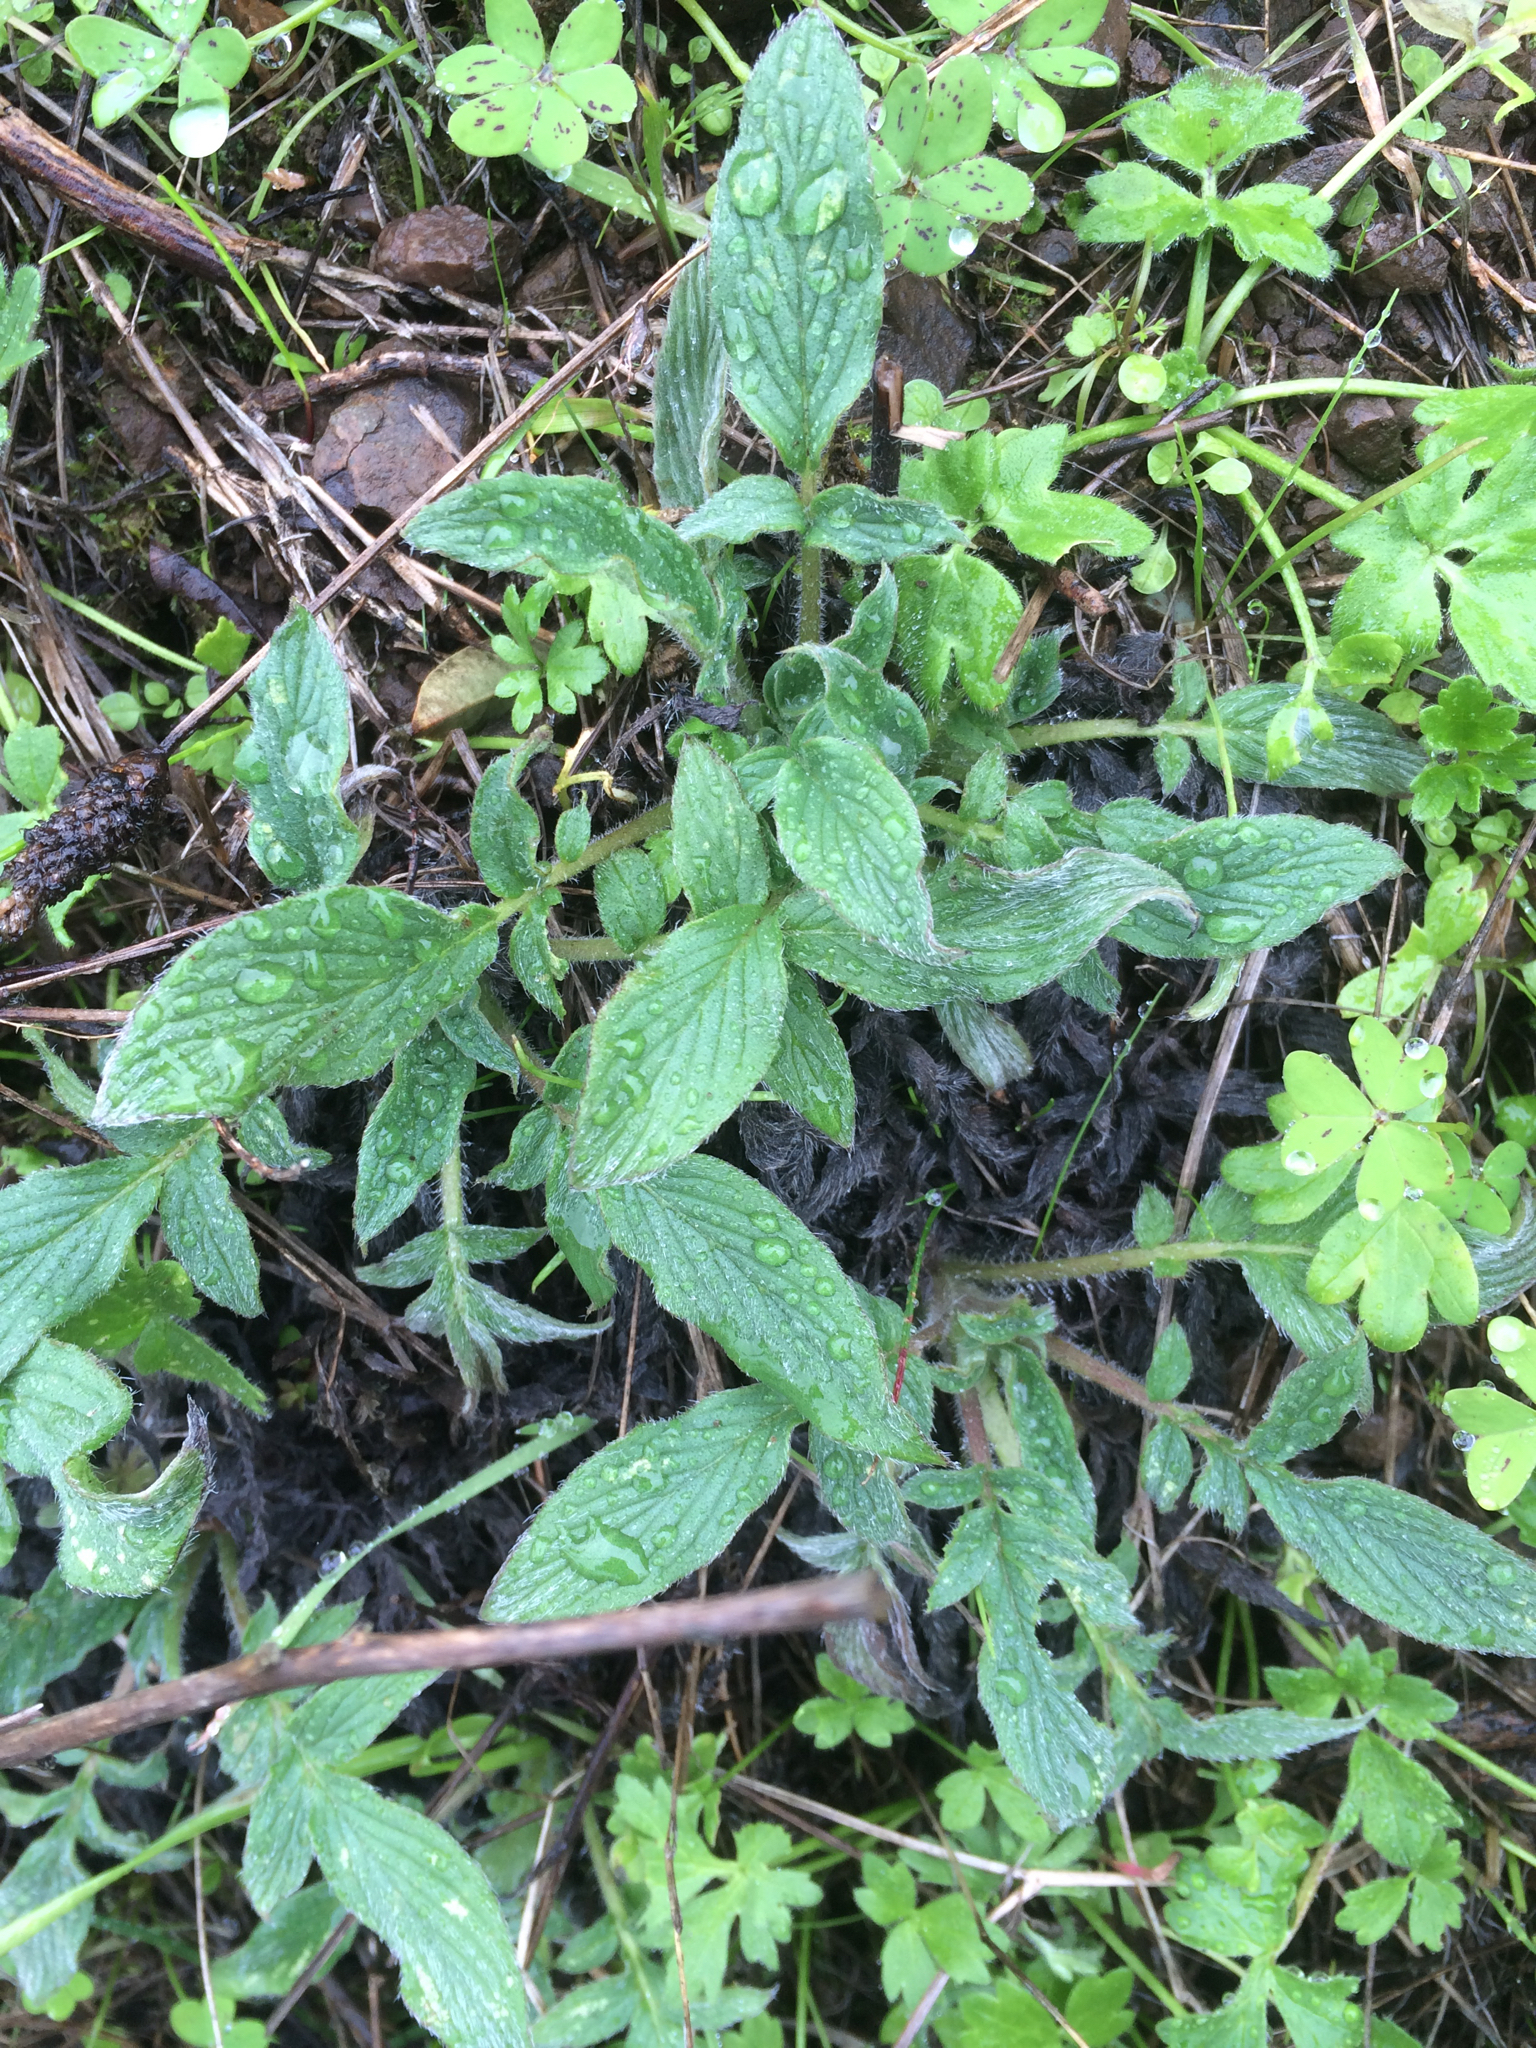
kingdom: Plantae
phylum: Tracheophyta
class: Magnoliopsida
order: Boraginales
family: Hydrophyllaceae
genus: Phacelia
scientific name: Phacelia californica
